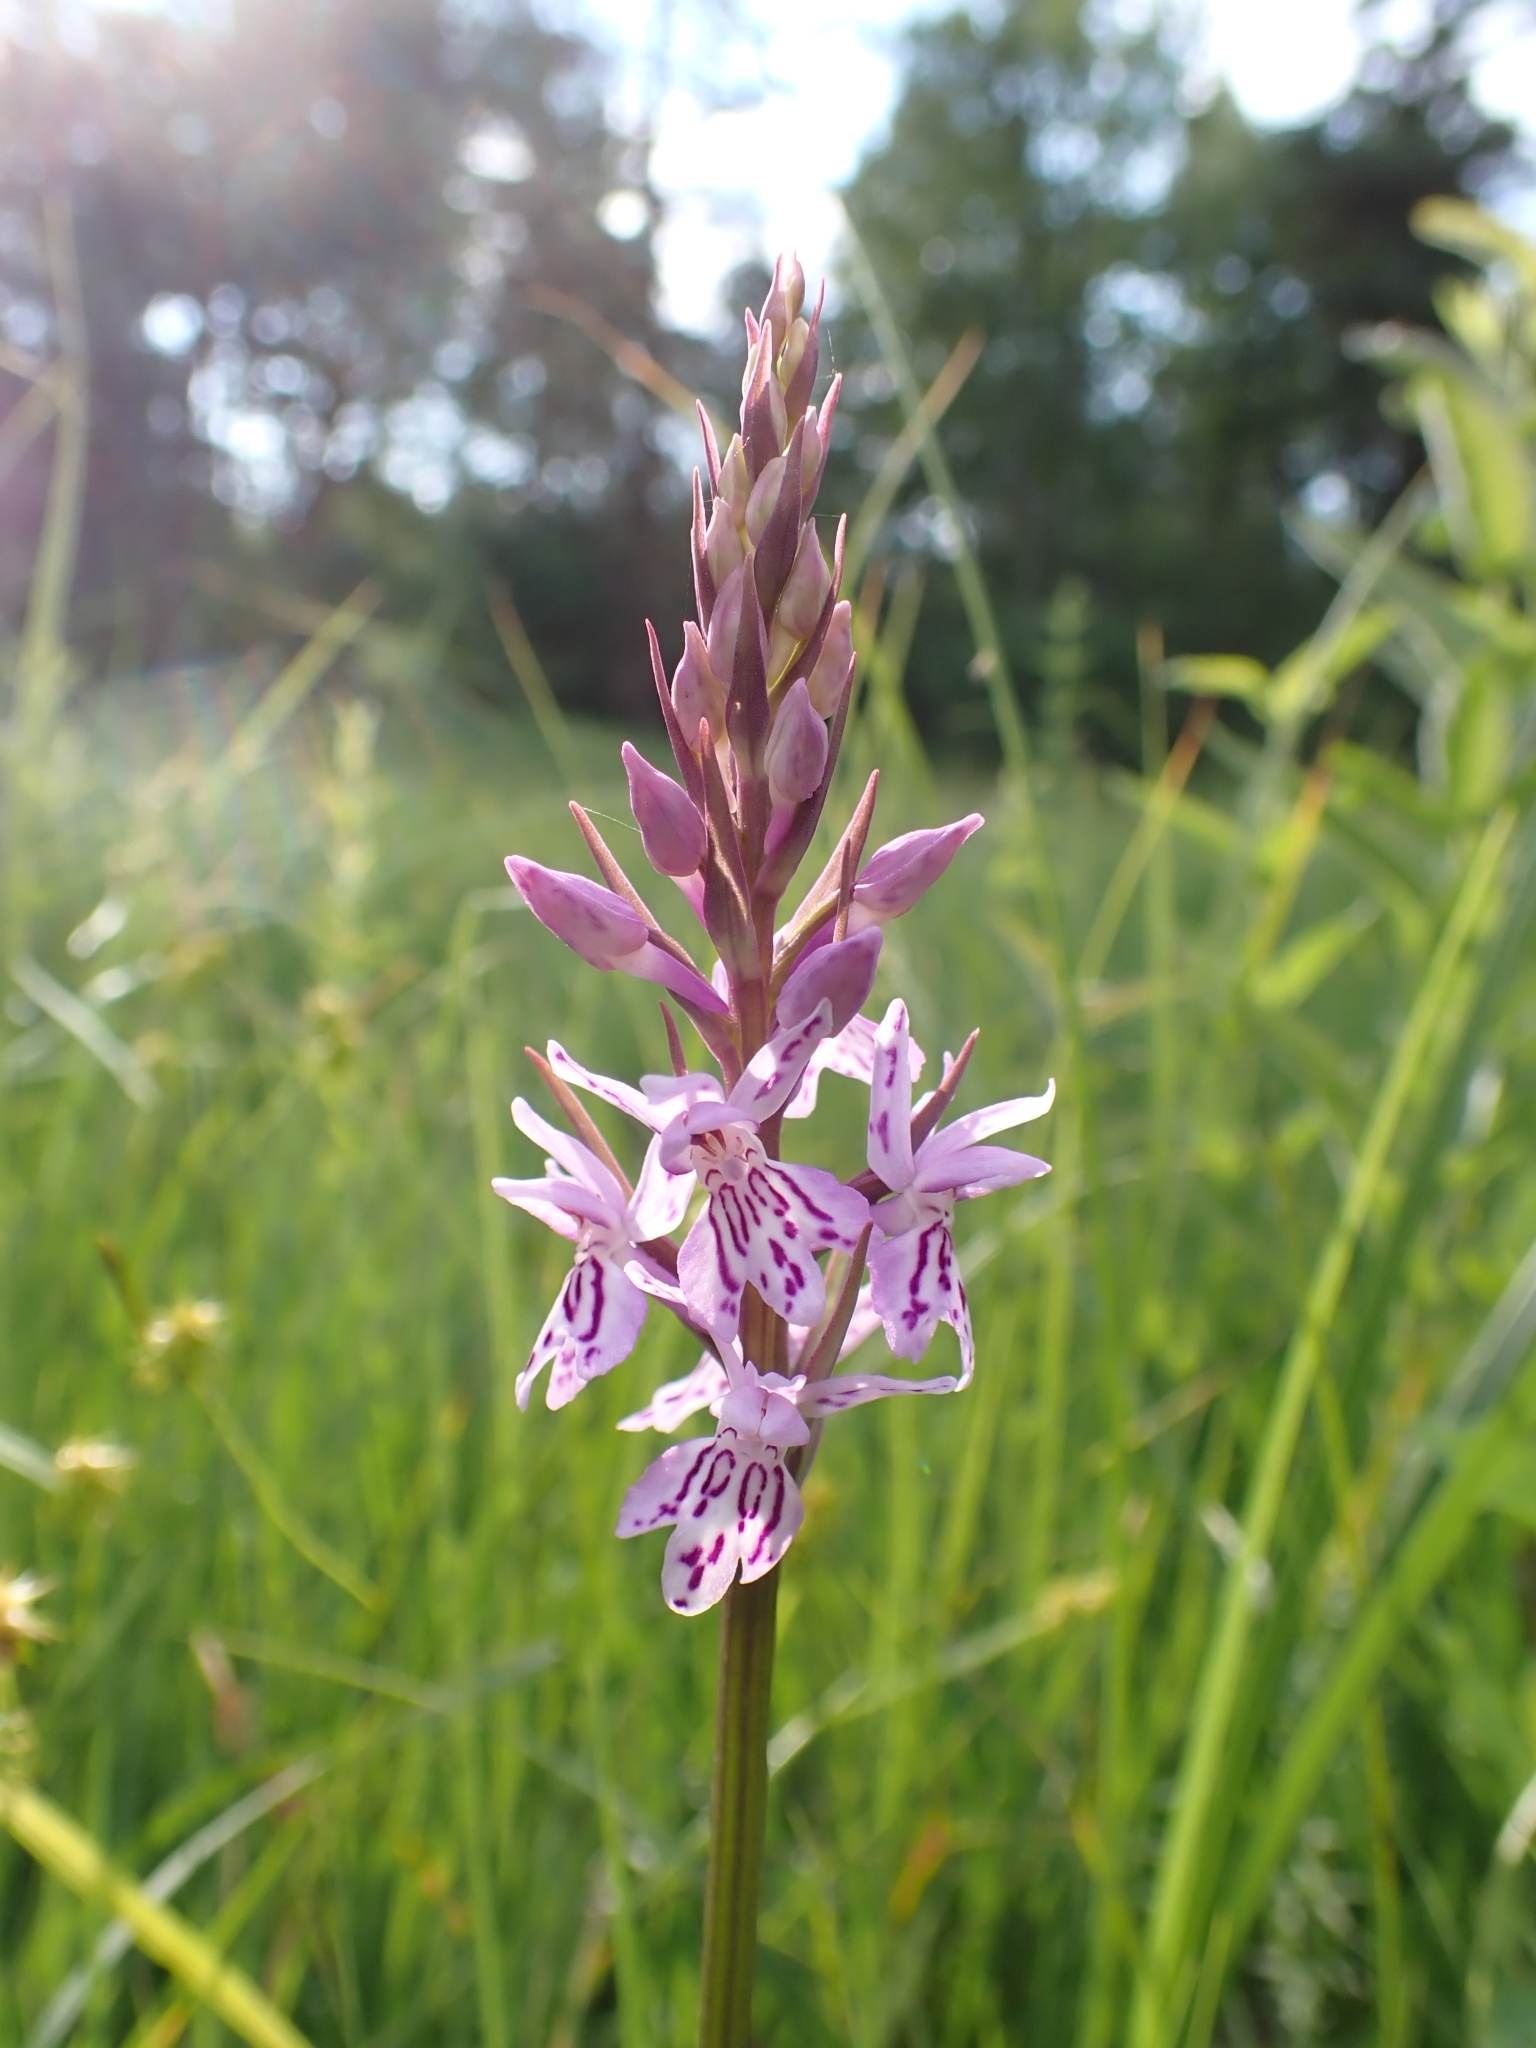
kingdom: Plantae
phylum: Tracheophyta
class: Liliopsida
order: Asparagales
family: Orchidaceae
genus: Dactylorhiza
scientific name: Dactylorhiza maculata
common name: Heath spotted-orchid
